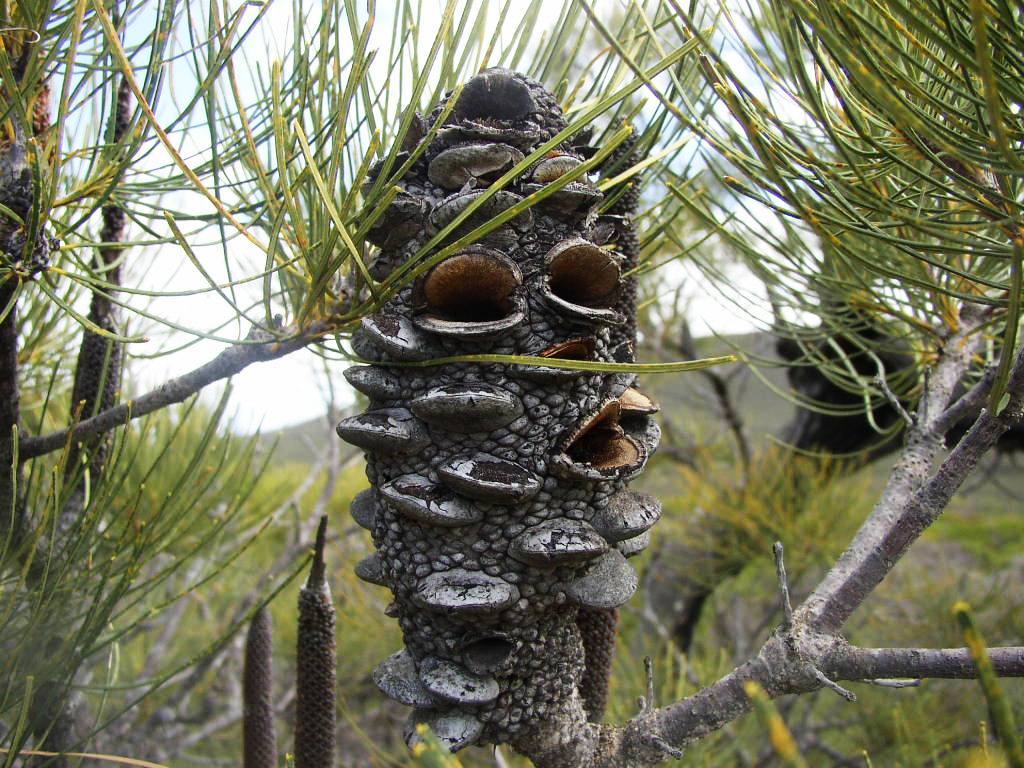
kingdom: Plantae
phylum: Tracheophyta
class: Magnoliopsida
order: Proteales
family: Proteaceae
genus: Banksia
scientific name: Banksia tricuspis
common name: Lesueur banksia
